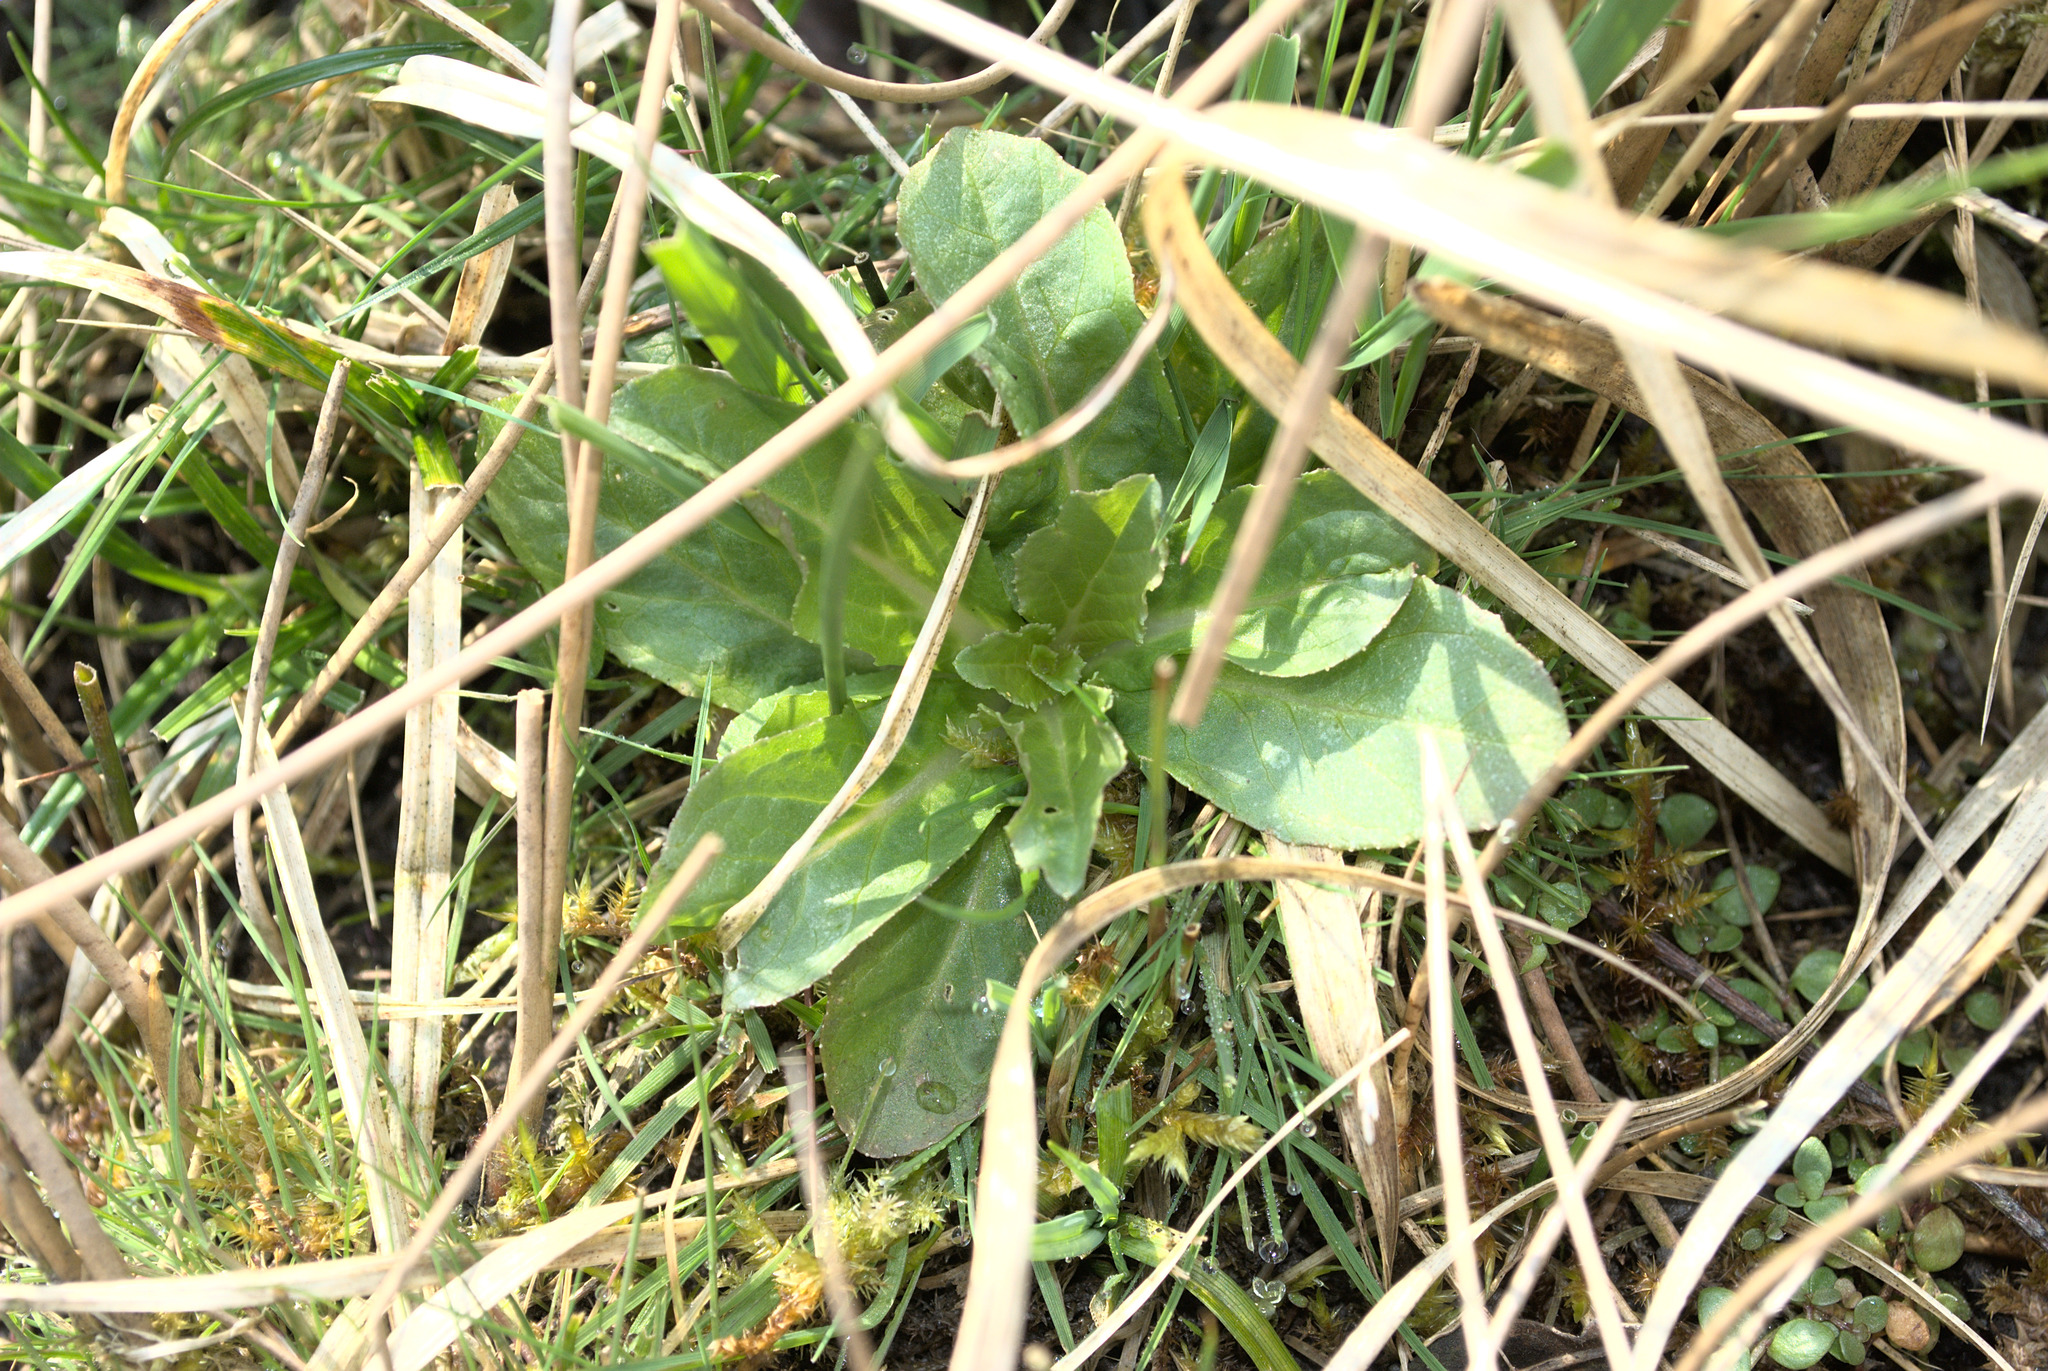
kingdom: Plantae
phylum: Tracheophyta
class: Magnoliopsida
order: Asterales
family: Campanulaceae
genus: Lobelia
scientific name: Lobelia urens
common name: Heath lobelia
